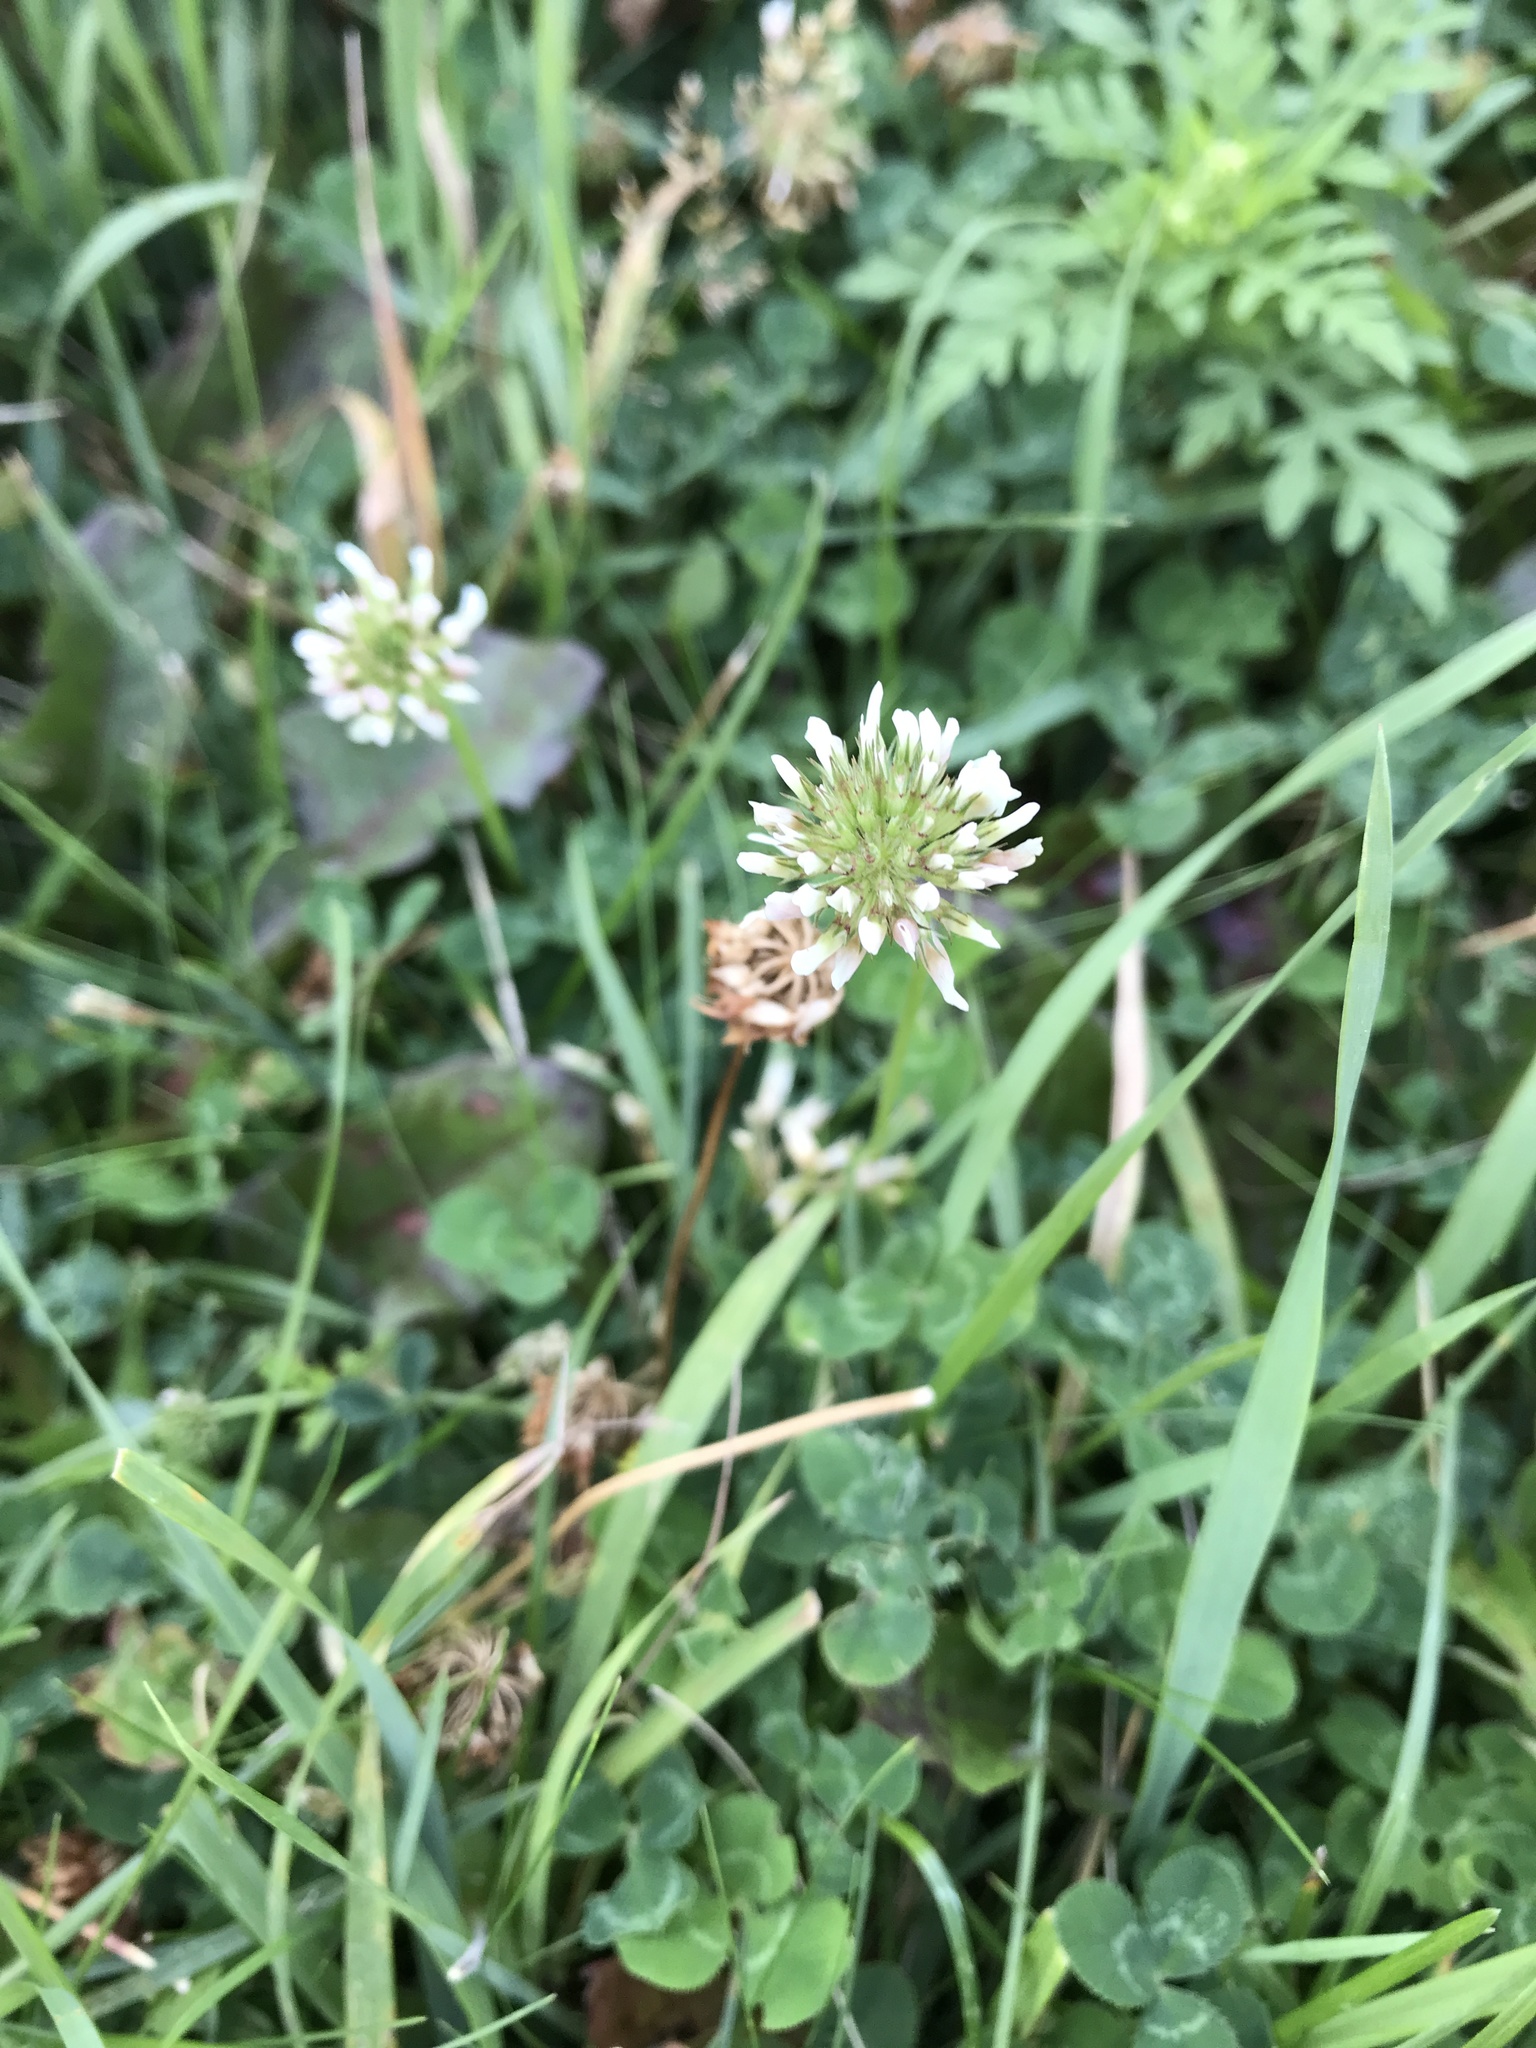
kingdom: Plantae
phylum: Tracheophyta
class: Magnoliopsida
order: Fabales
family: Fabaceae
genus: Trifolium
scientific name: Trifolium repens
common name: White clover
